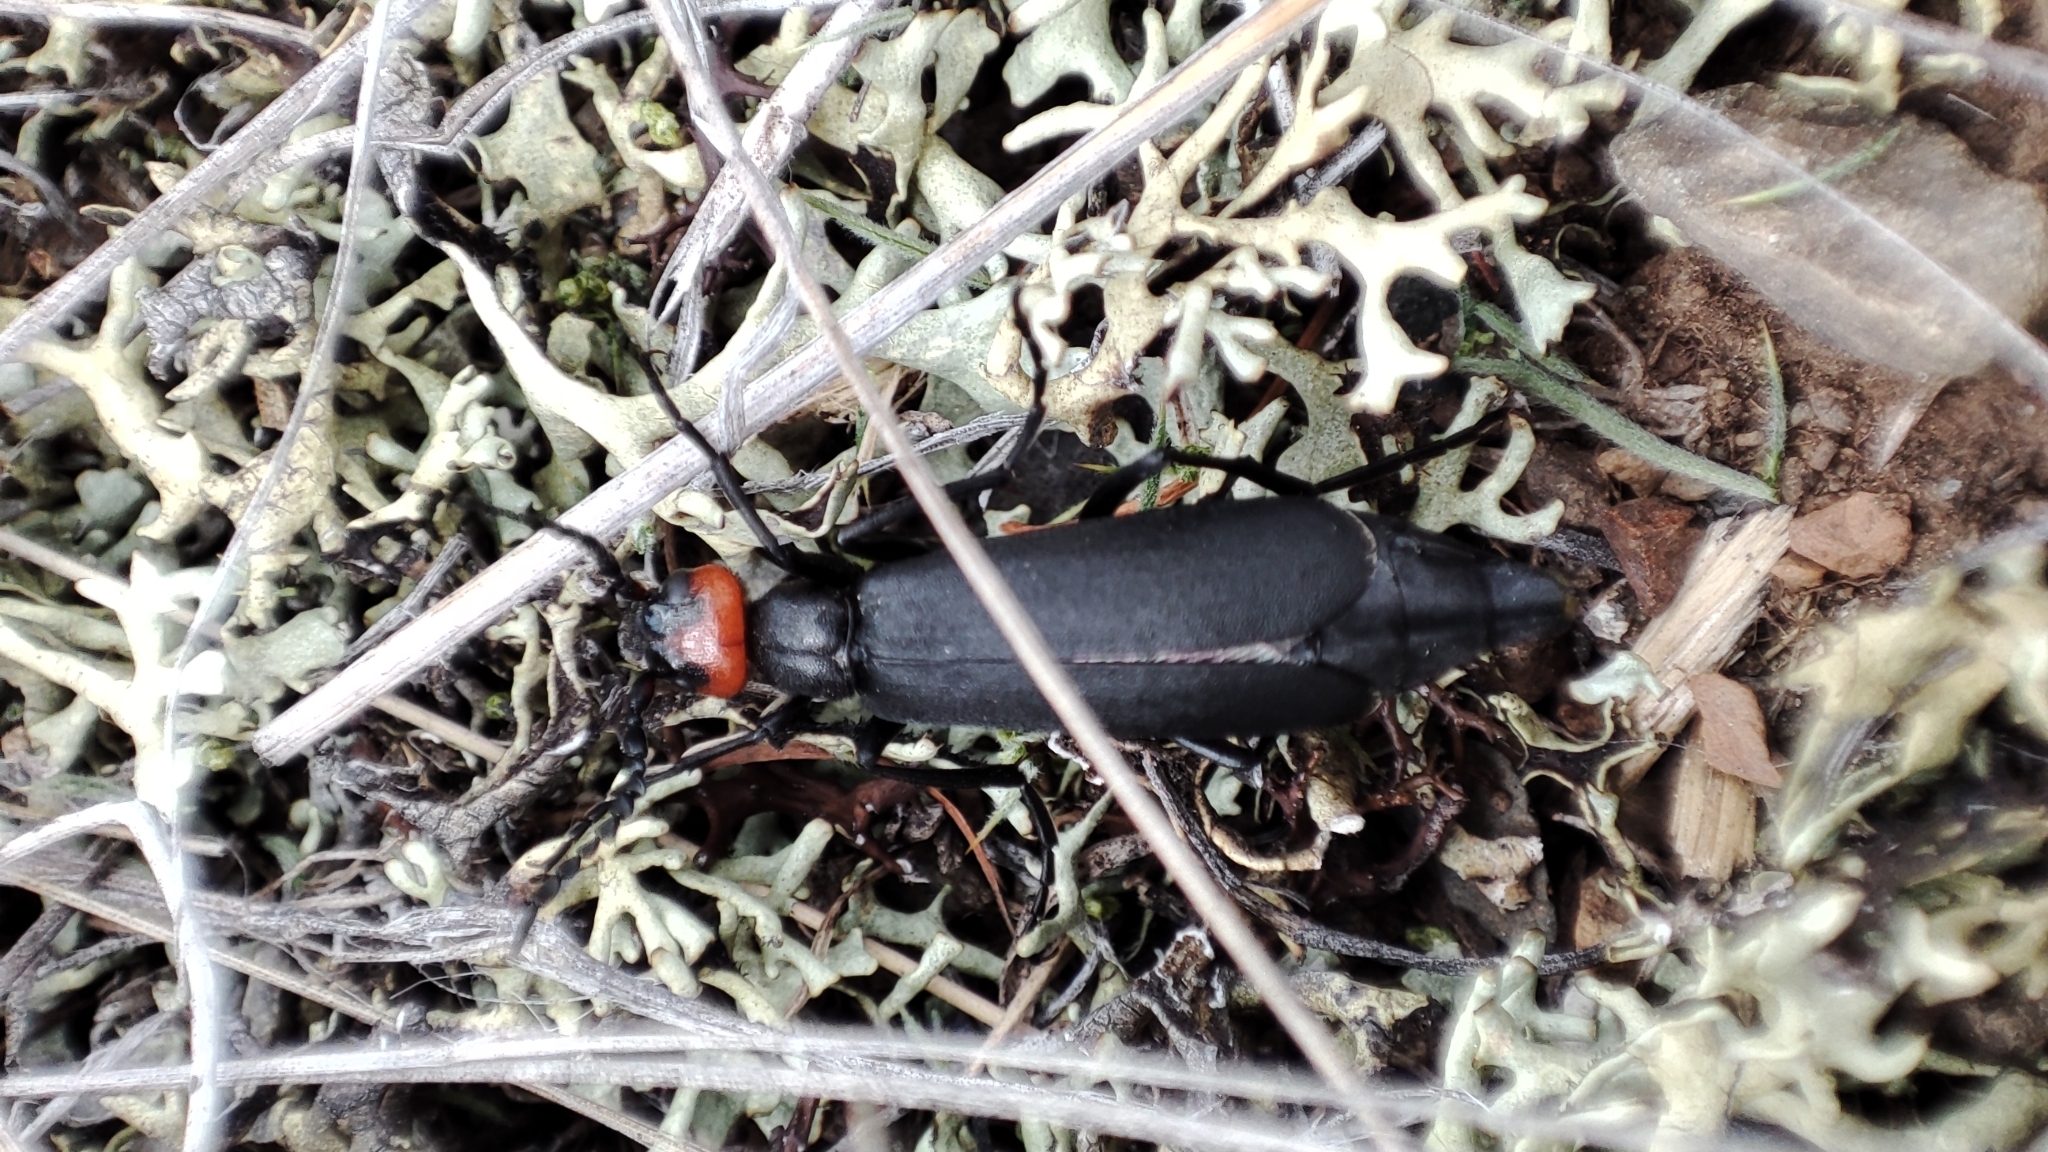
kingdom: Animalia
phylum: Arthropoda
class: Insecta
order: Coleoptera
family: Meloidae
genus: Epicauta
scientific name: Epicauta flabellicornis
